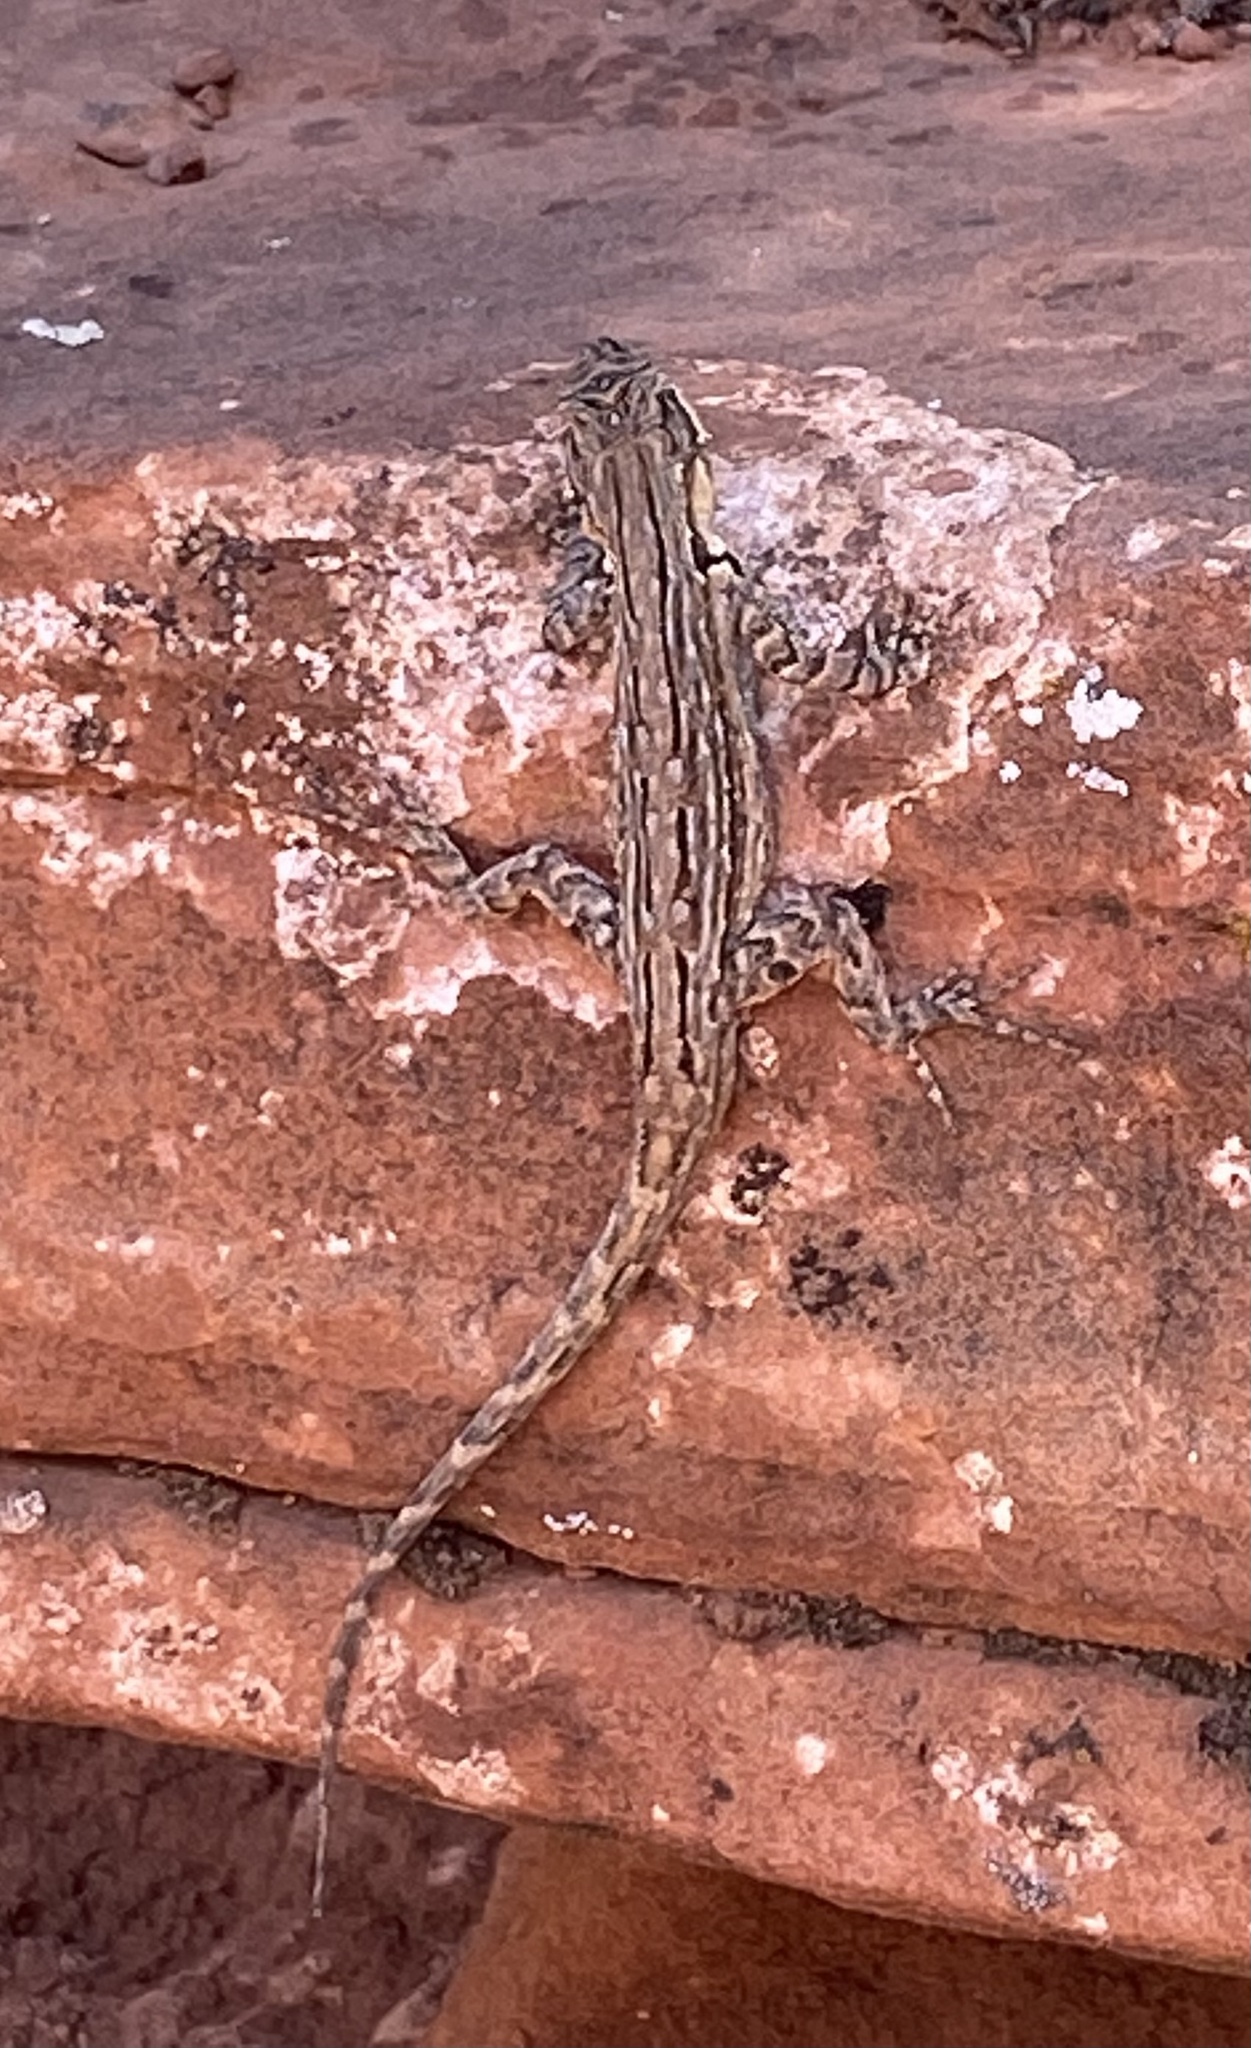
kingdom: Animalia
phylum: Chordata
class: Squamata
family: Phrynosomatidae
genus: Urosaurus
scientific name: Urosaurus ornatus
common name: Ornate tree lizard
